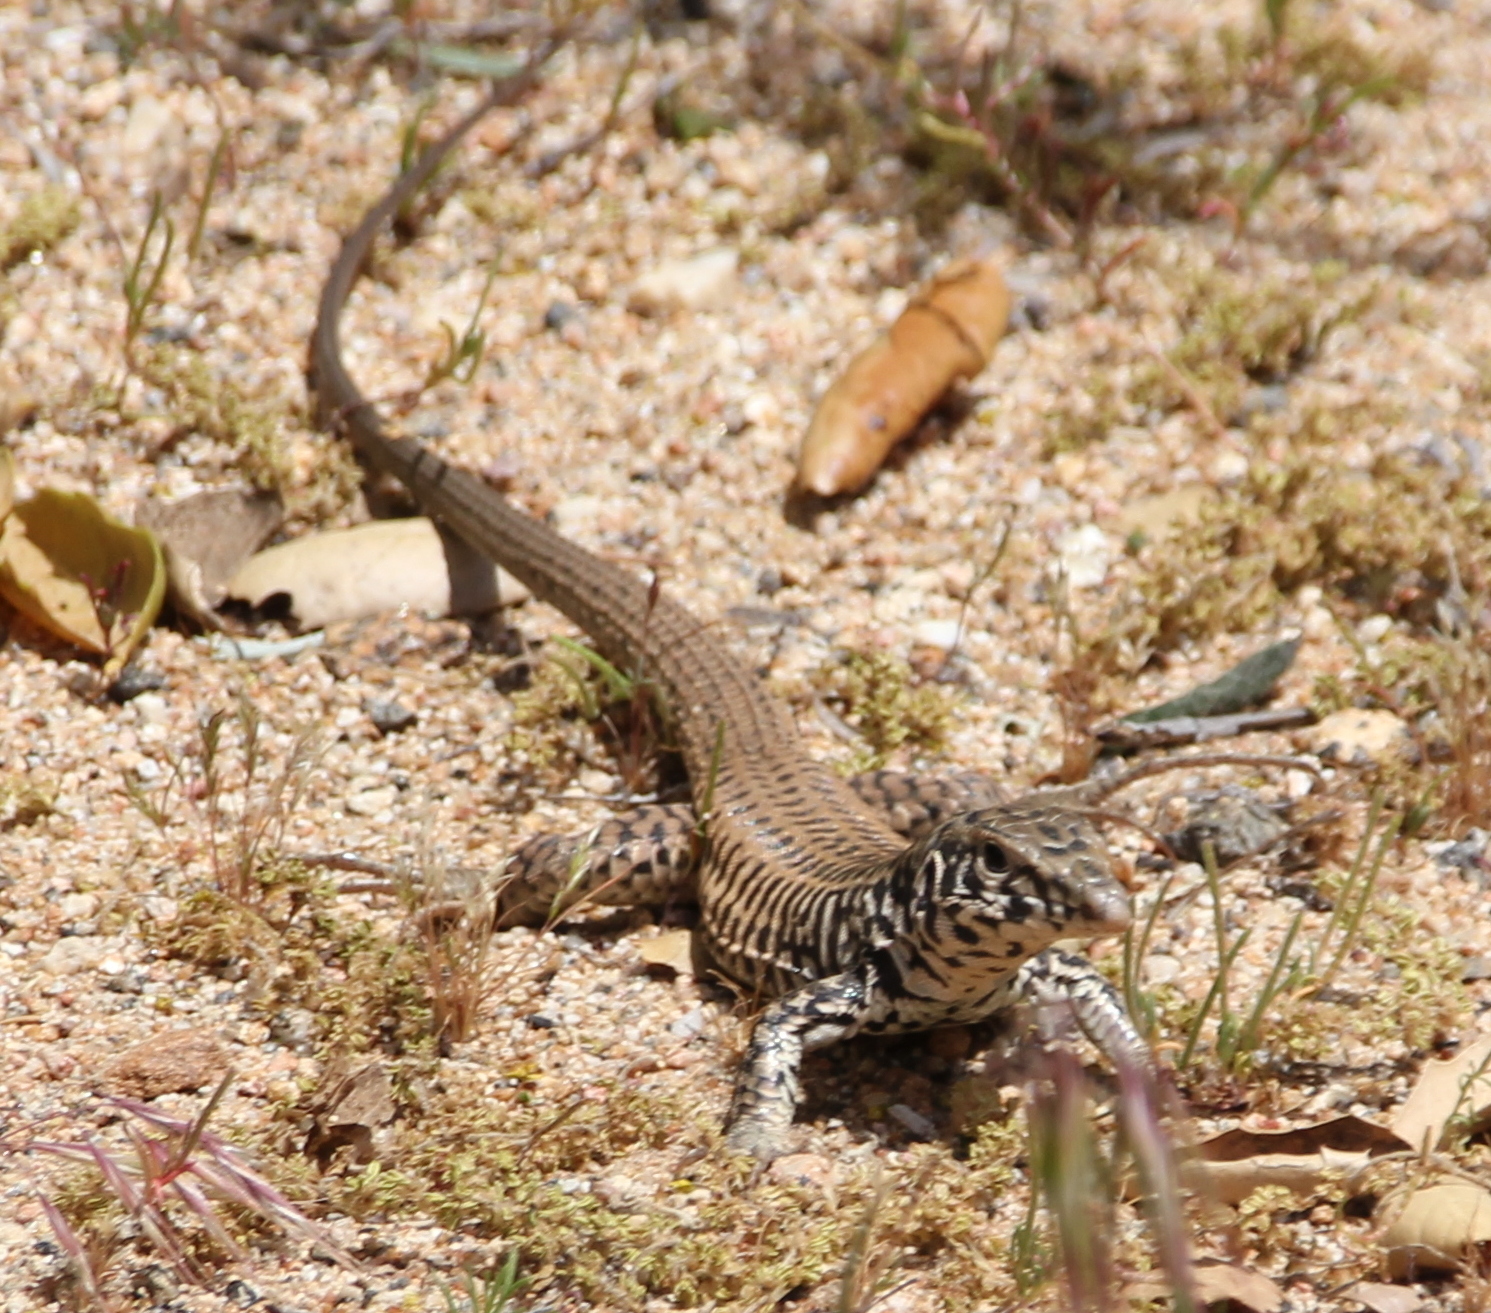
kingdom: Animalia
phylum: Chordata
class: Squamata
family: Teiidae
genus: Aspidoscelis
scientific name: Aspidoscelis tigris
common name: Tiger whiptail
